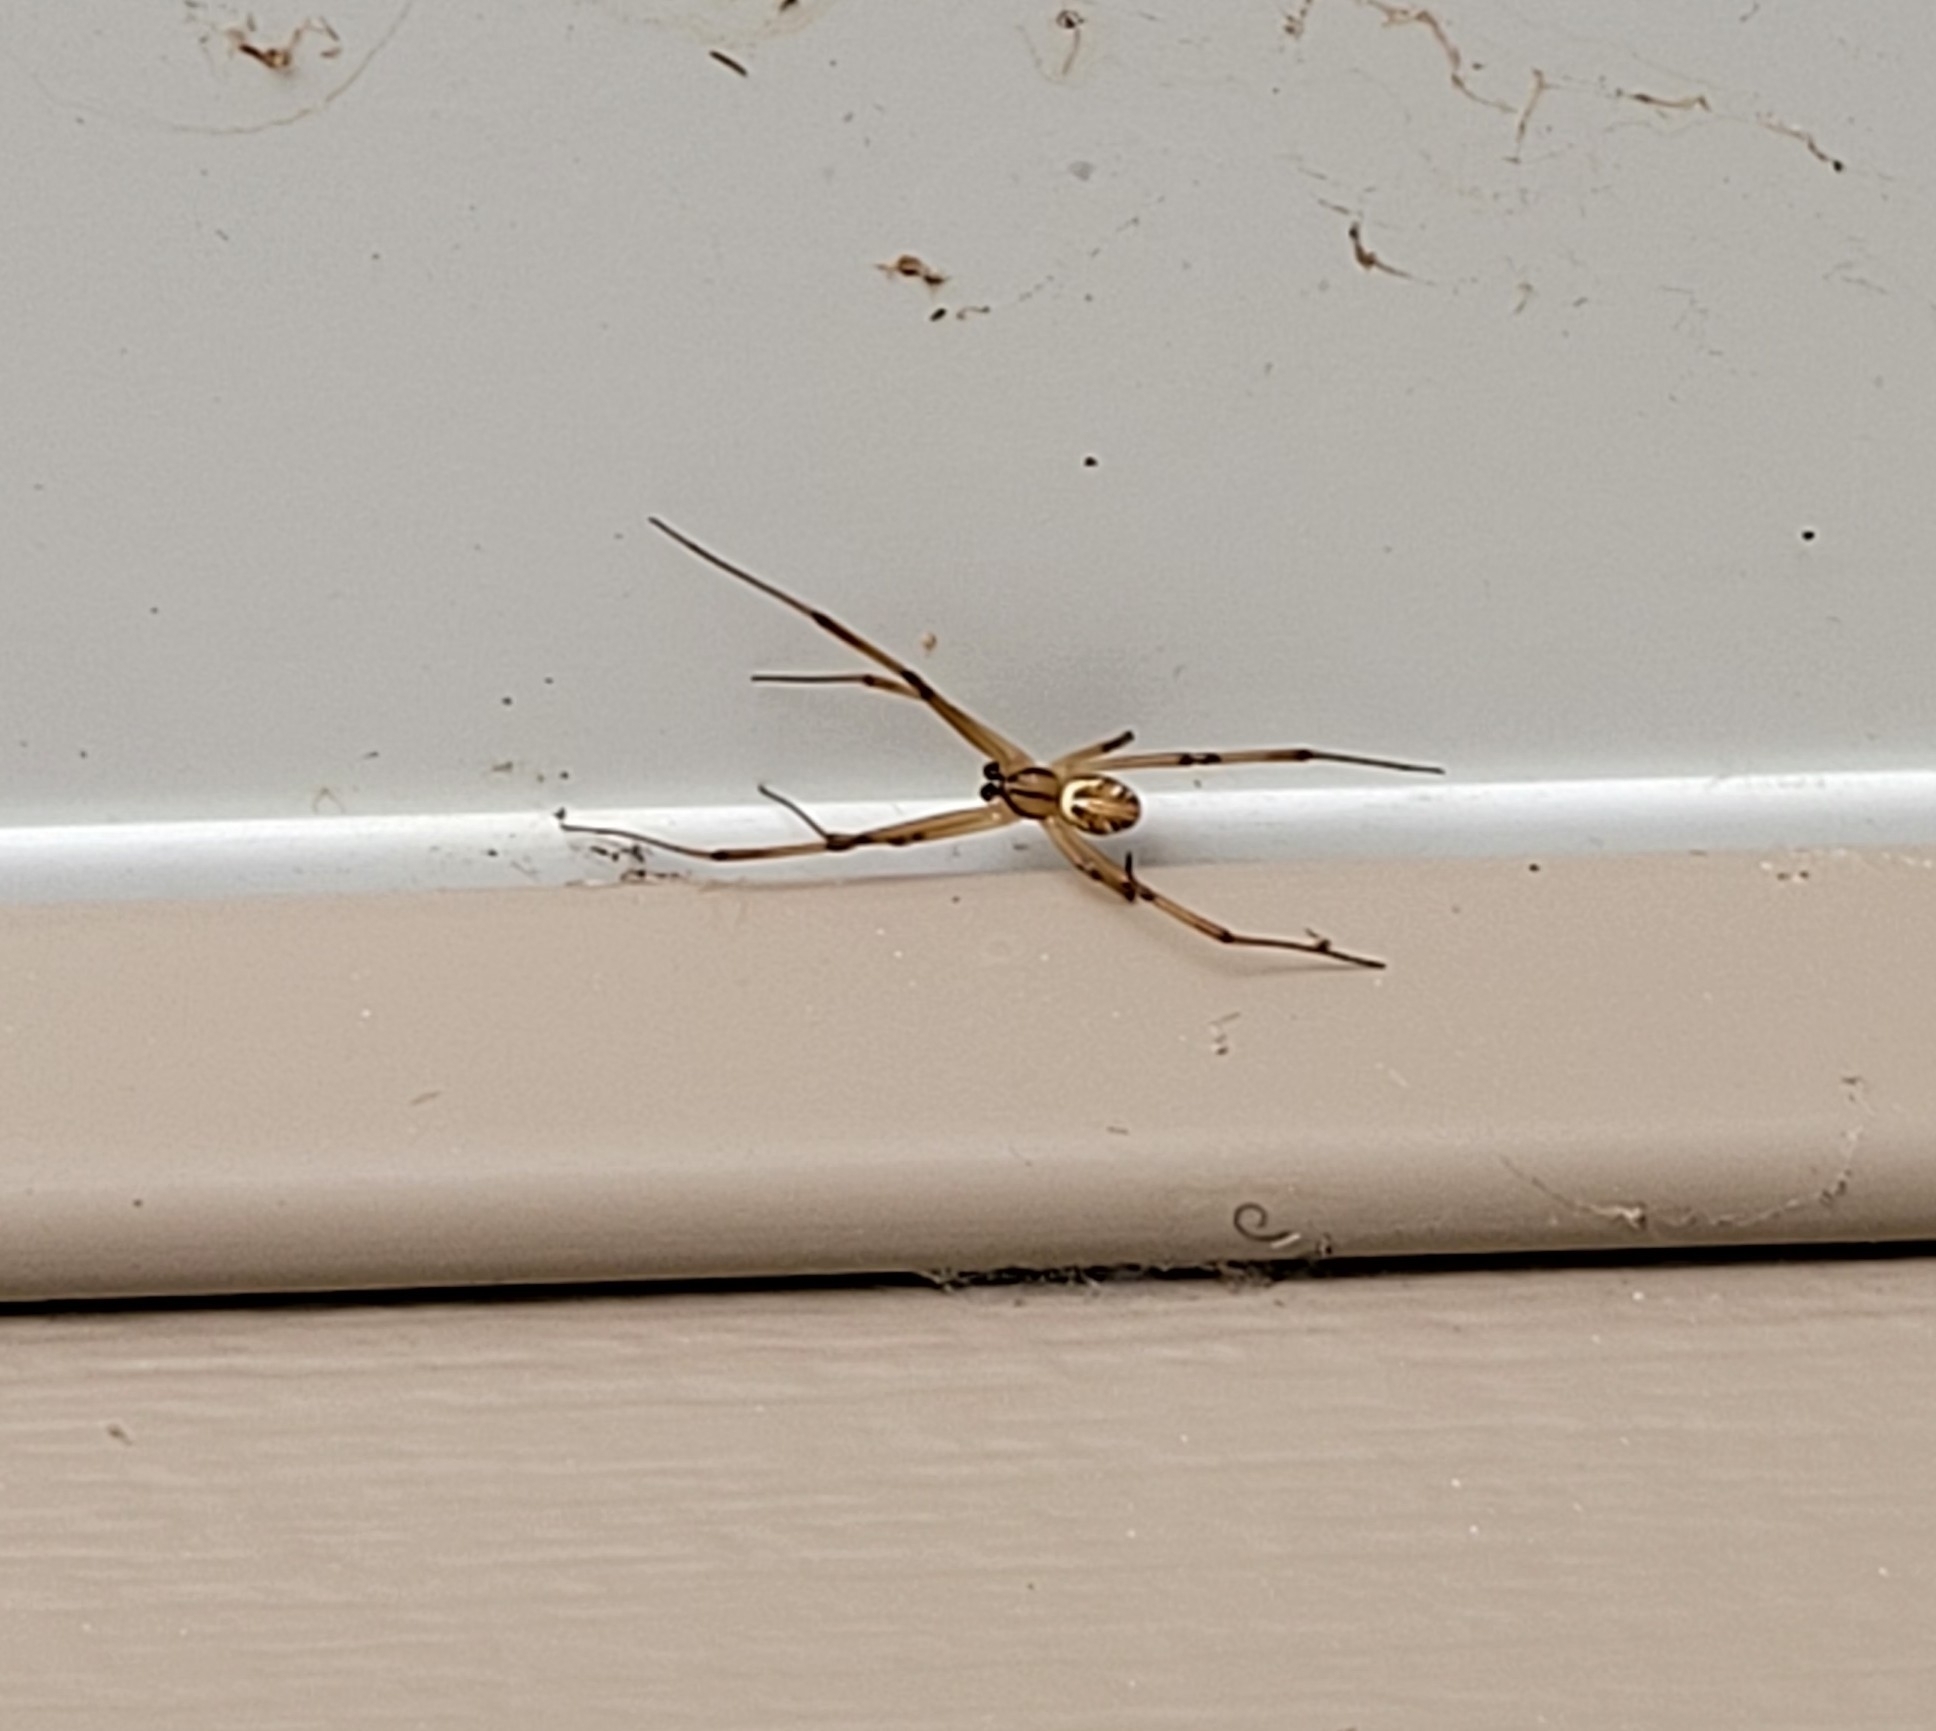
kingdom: Animalia
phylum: Arthropoda
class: Arachnida
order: Araneae
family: Theridiidae
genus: Latrodectus
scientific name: Latrodectus hesperus
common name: Western black widow
